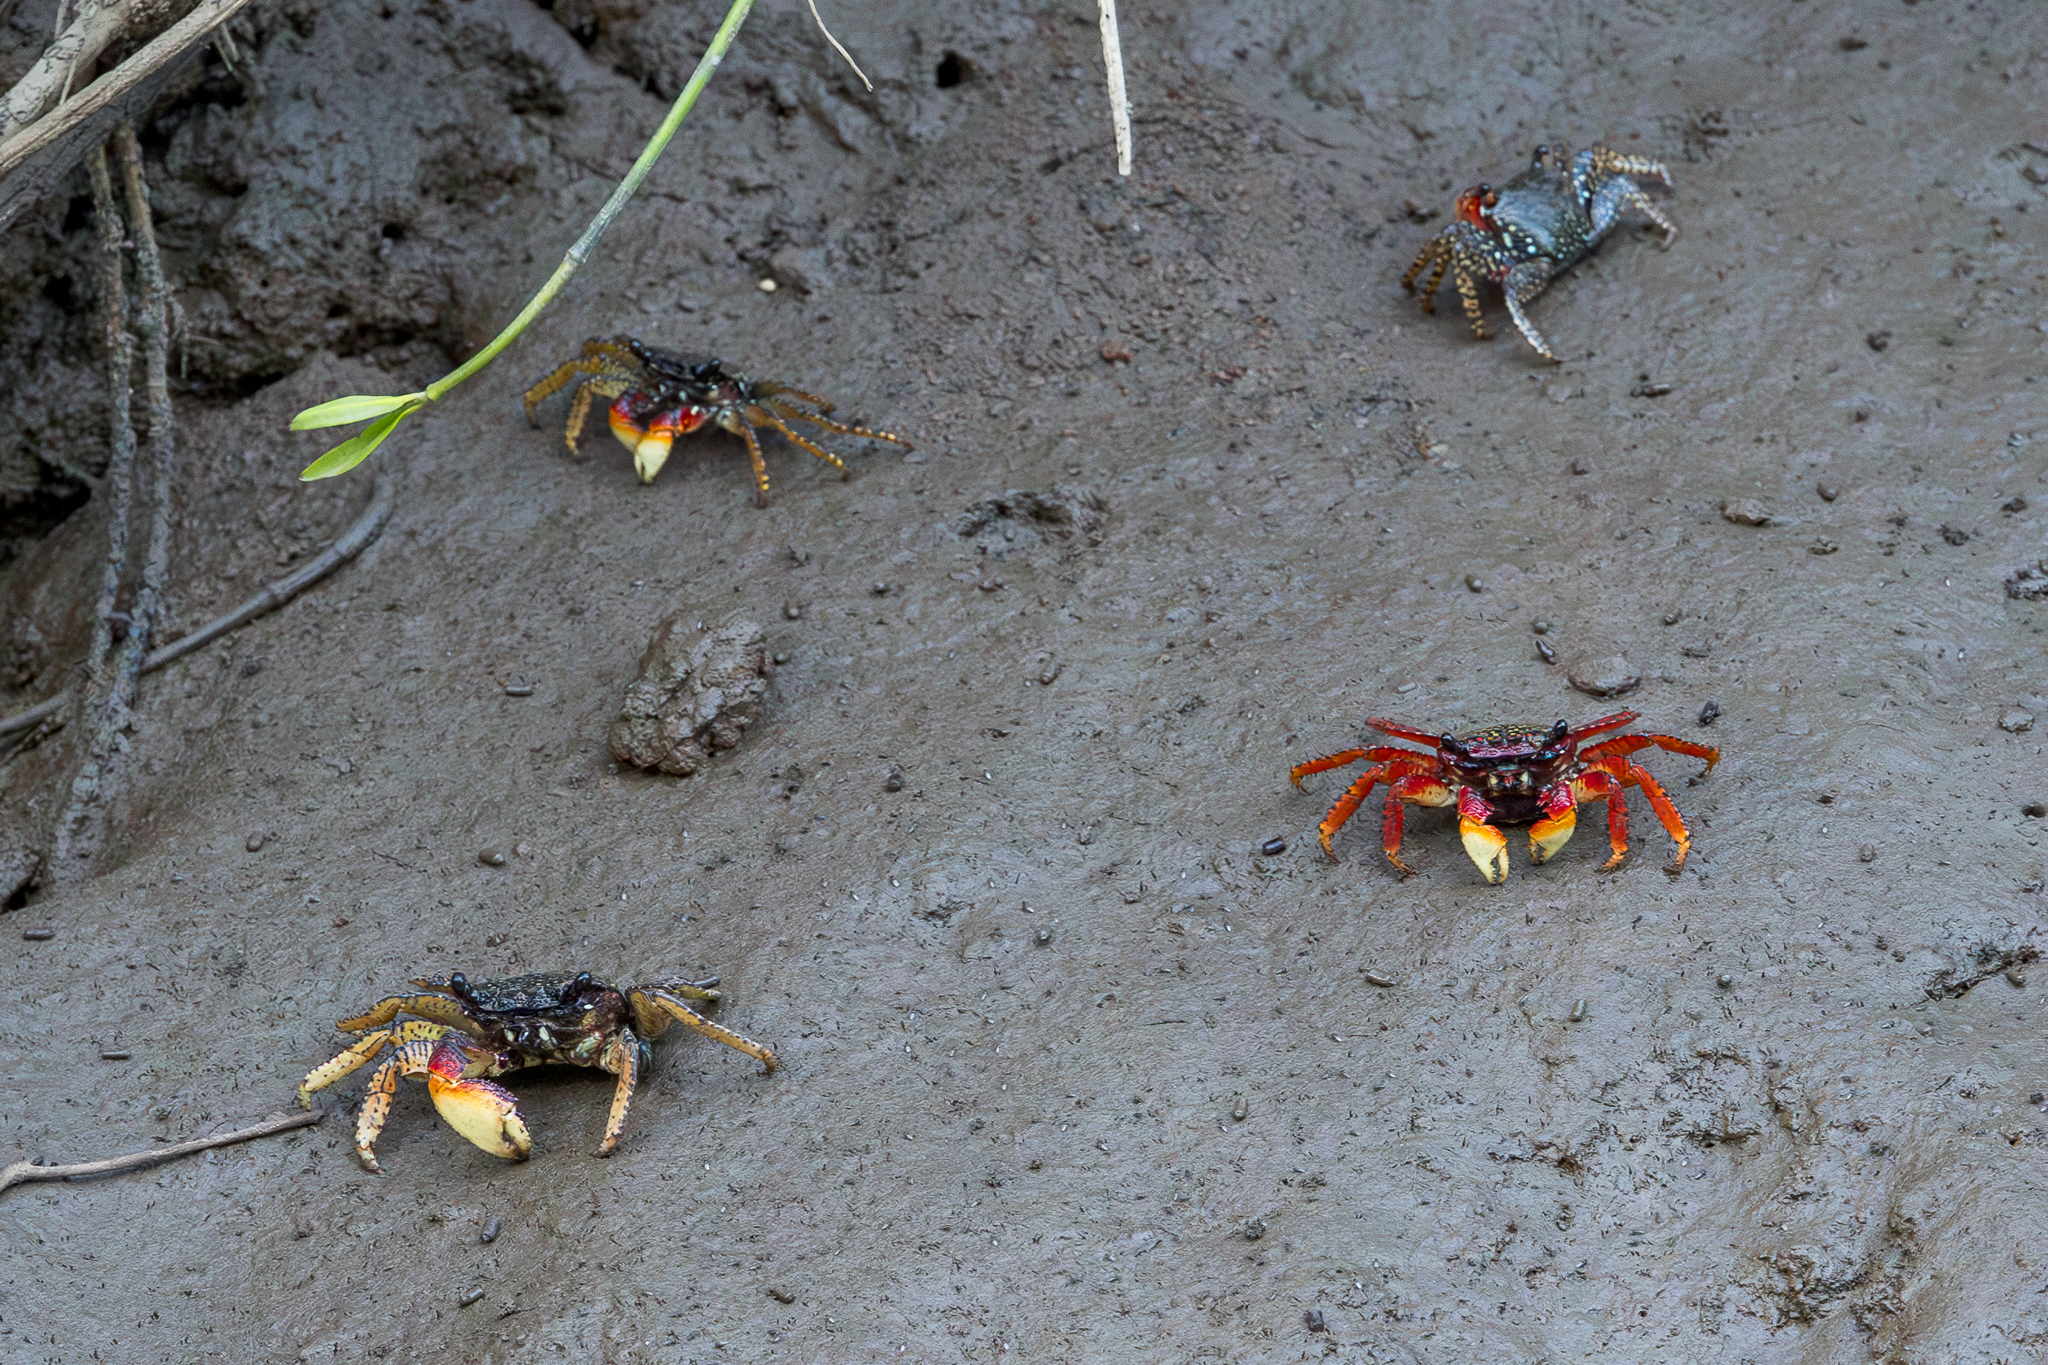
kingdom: Animalia
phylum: Arthropoda
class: Malacostraca
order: Decapoda
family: Grapsidae
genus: Goniopsis
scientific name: Goniopsis pulchra
